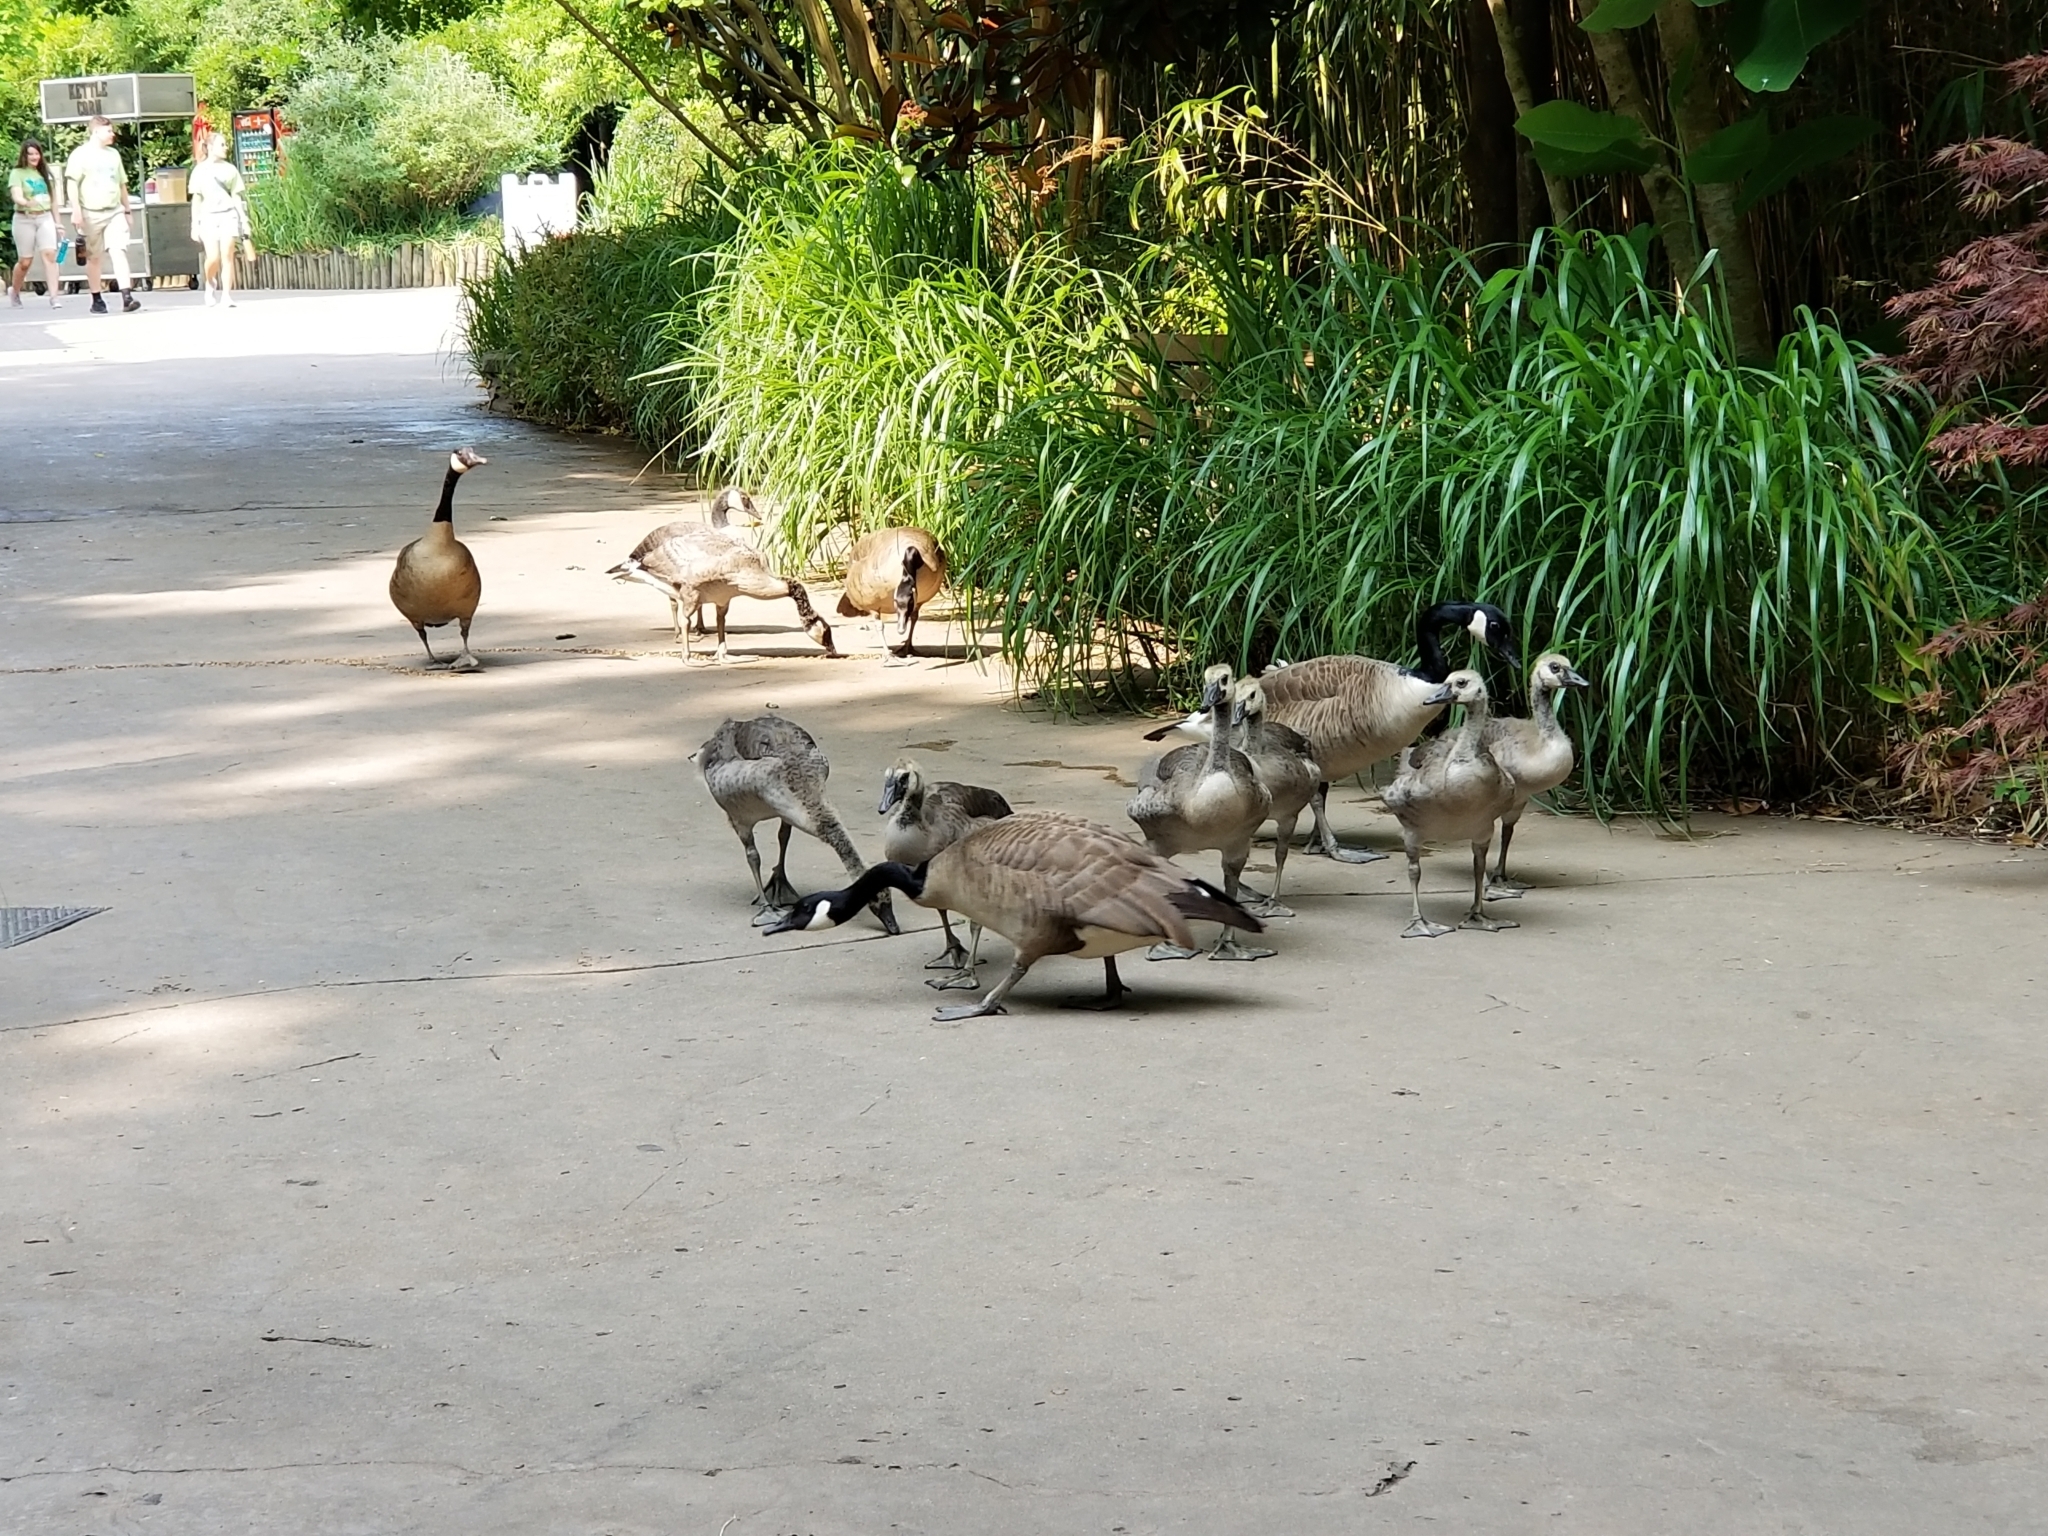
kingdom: Animalia
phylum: Chordata
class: Aves
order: Anseriformes
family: Anatidae
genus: Branta
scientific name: Branta canadensis
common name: Canada goose
